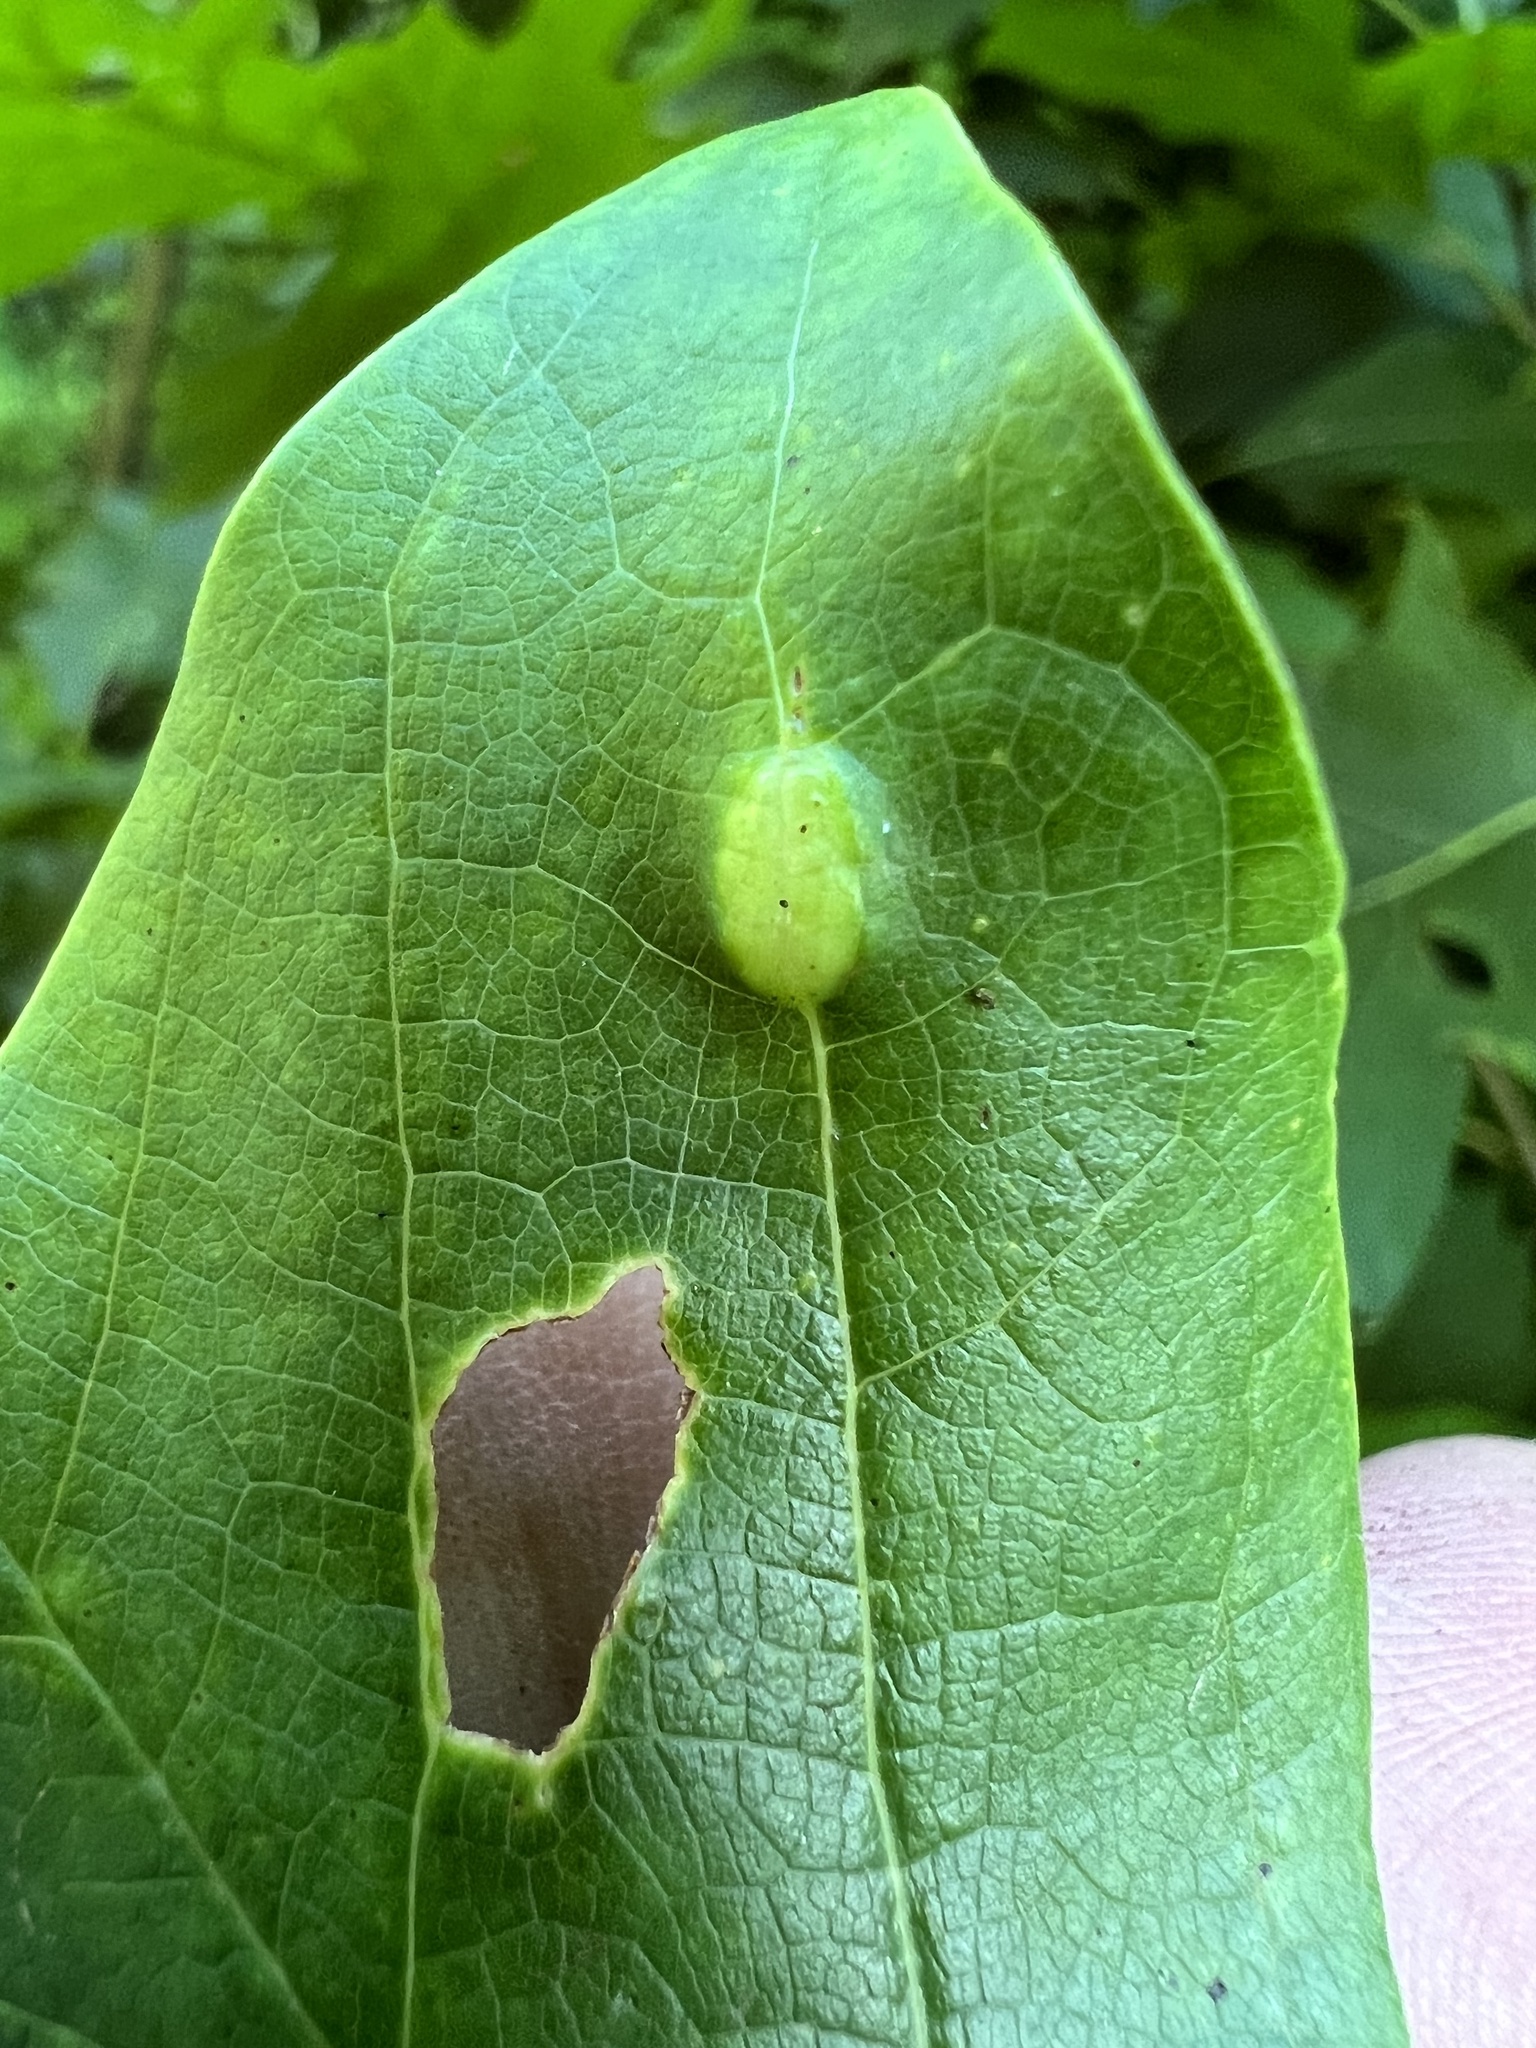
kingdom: Animalia
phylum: Arthropoda
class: Insecta
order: Diptera
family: Cecidomyiidae
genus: Resseliella
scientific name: Resseliella tulipiferae
